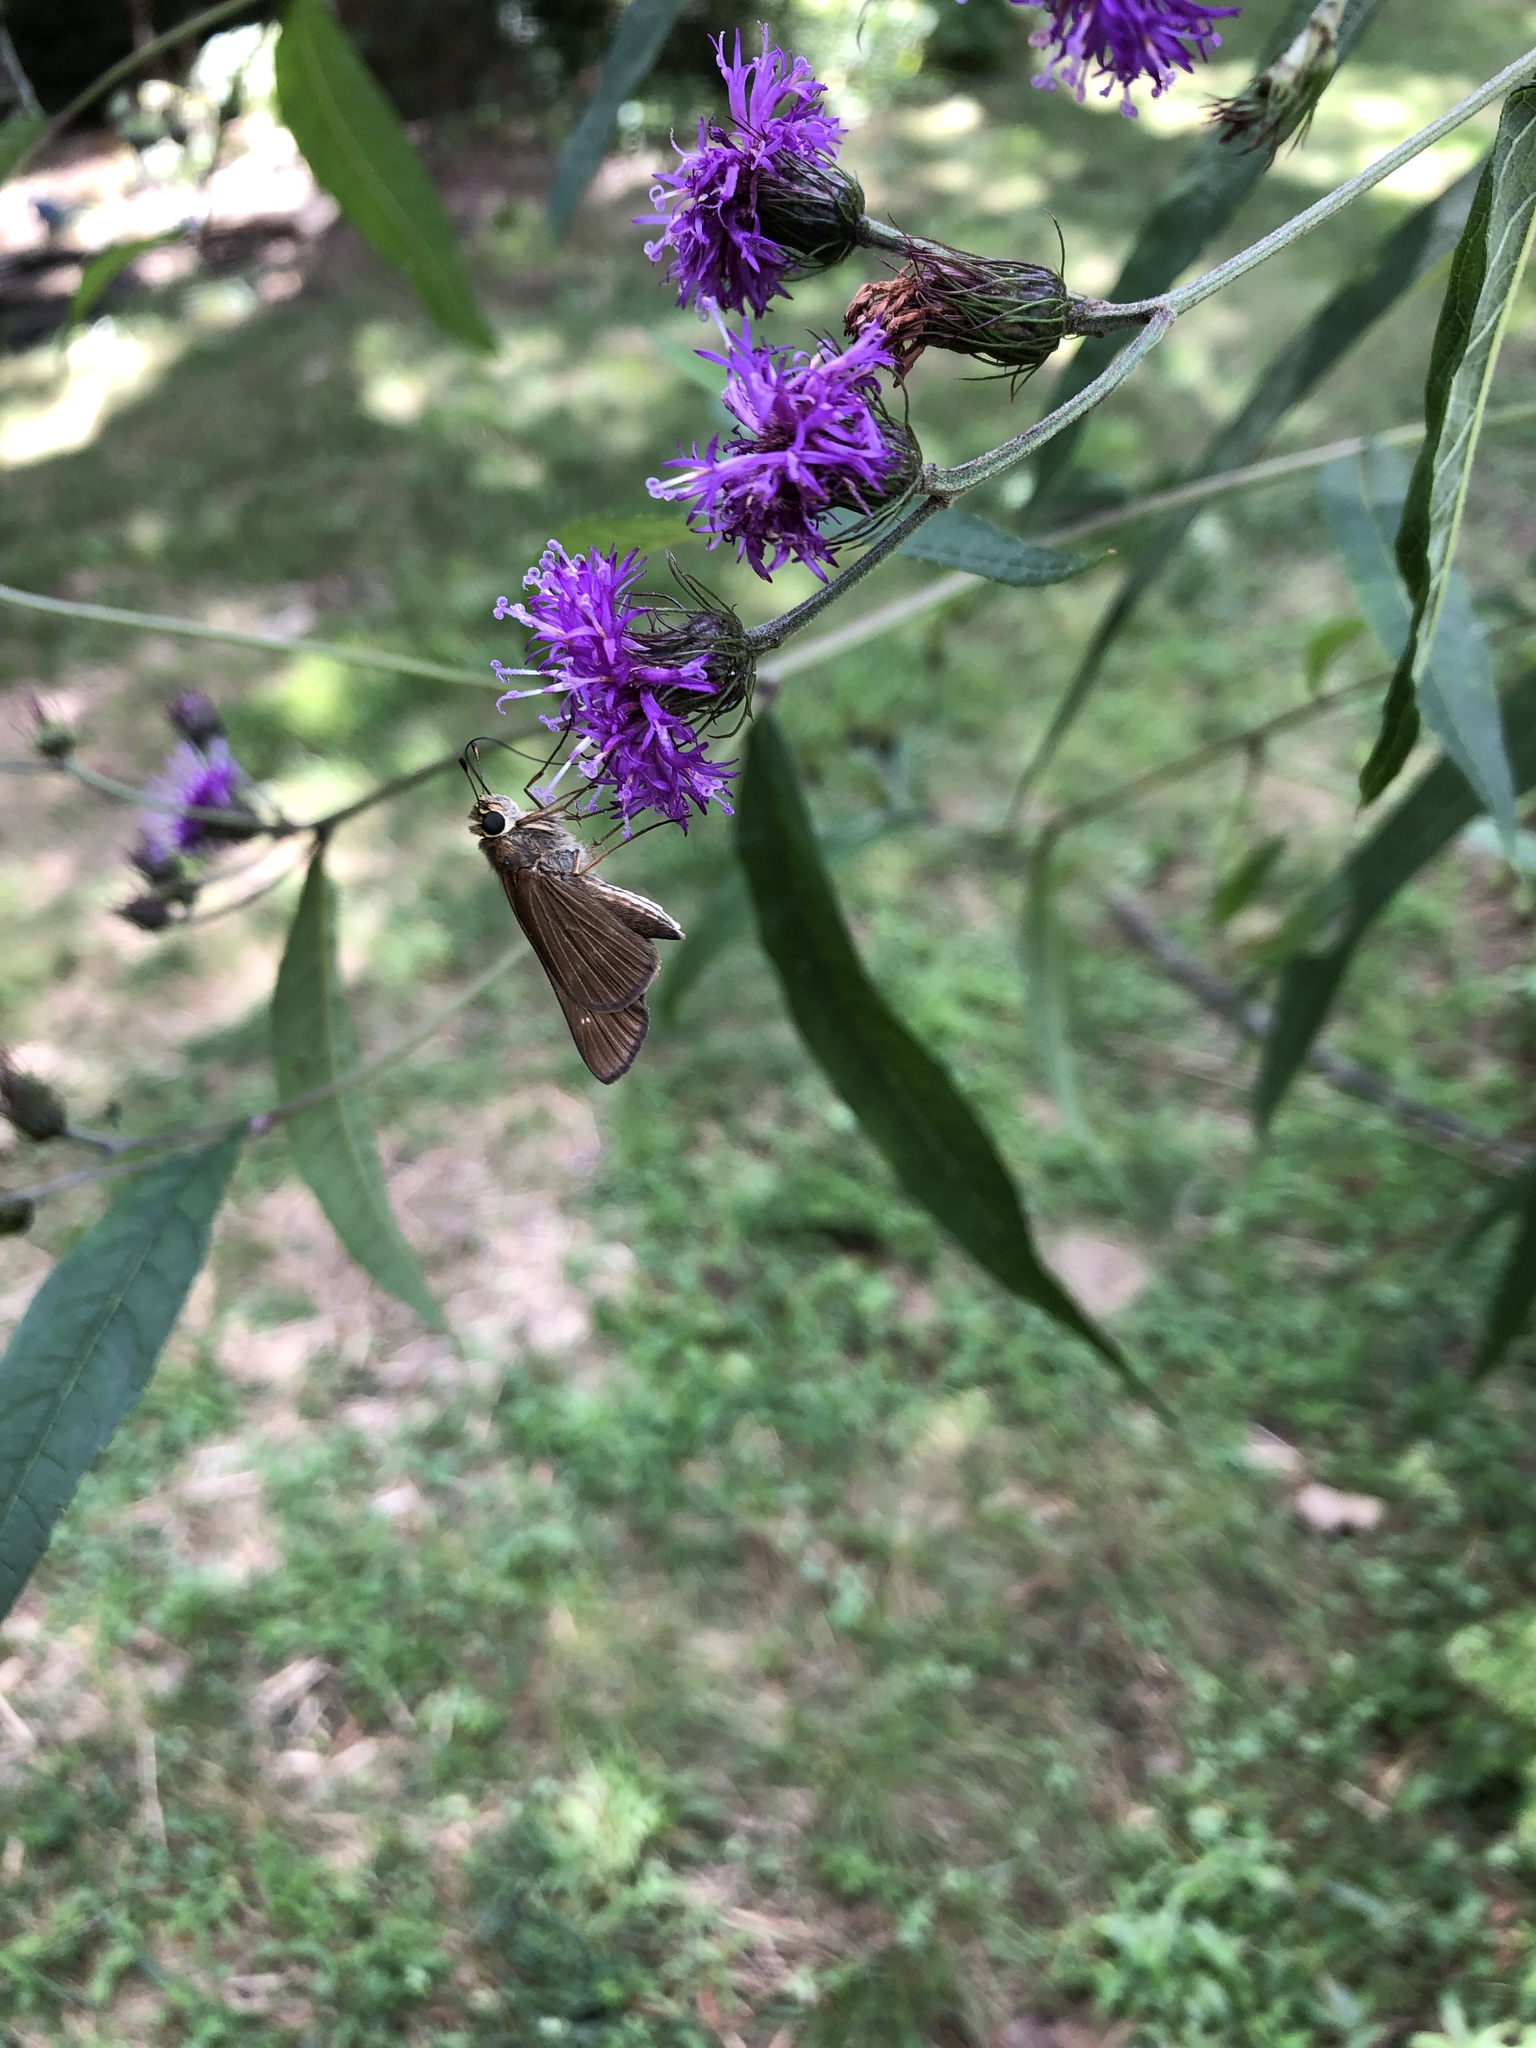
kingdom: Animalia
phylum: Arthropoda
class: Insecta
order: Lepidoptera
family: Hesperiidae
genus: Panoquina
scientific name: Panoquina ocola
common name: Ocola skipper
